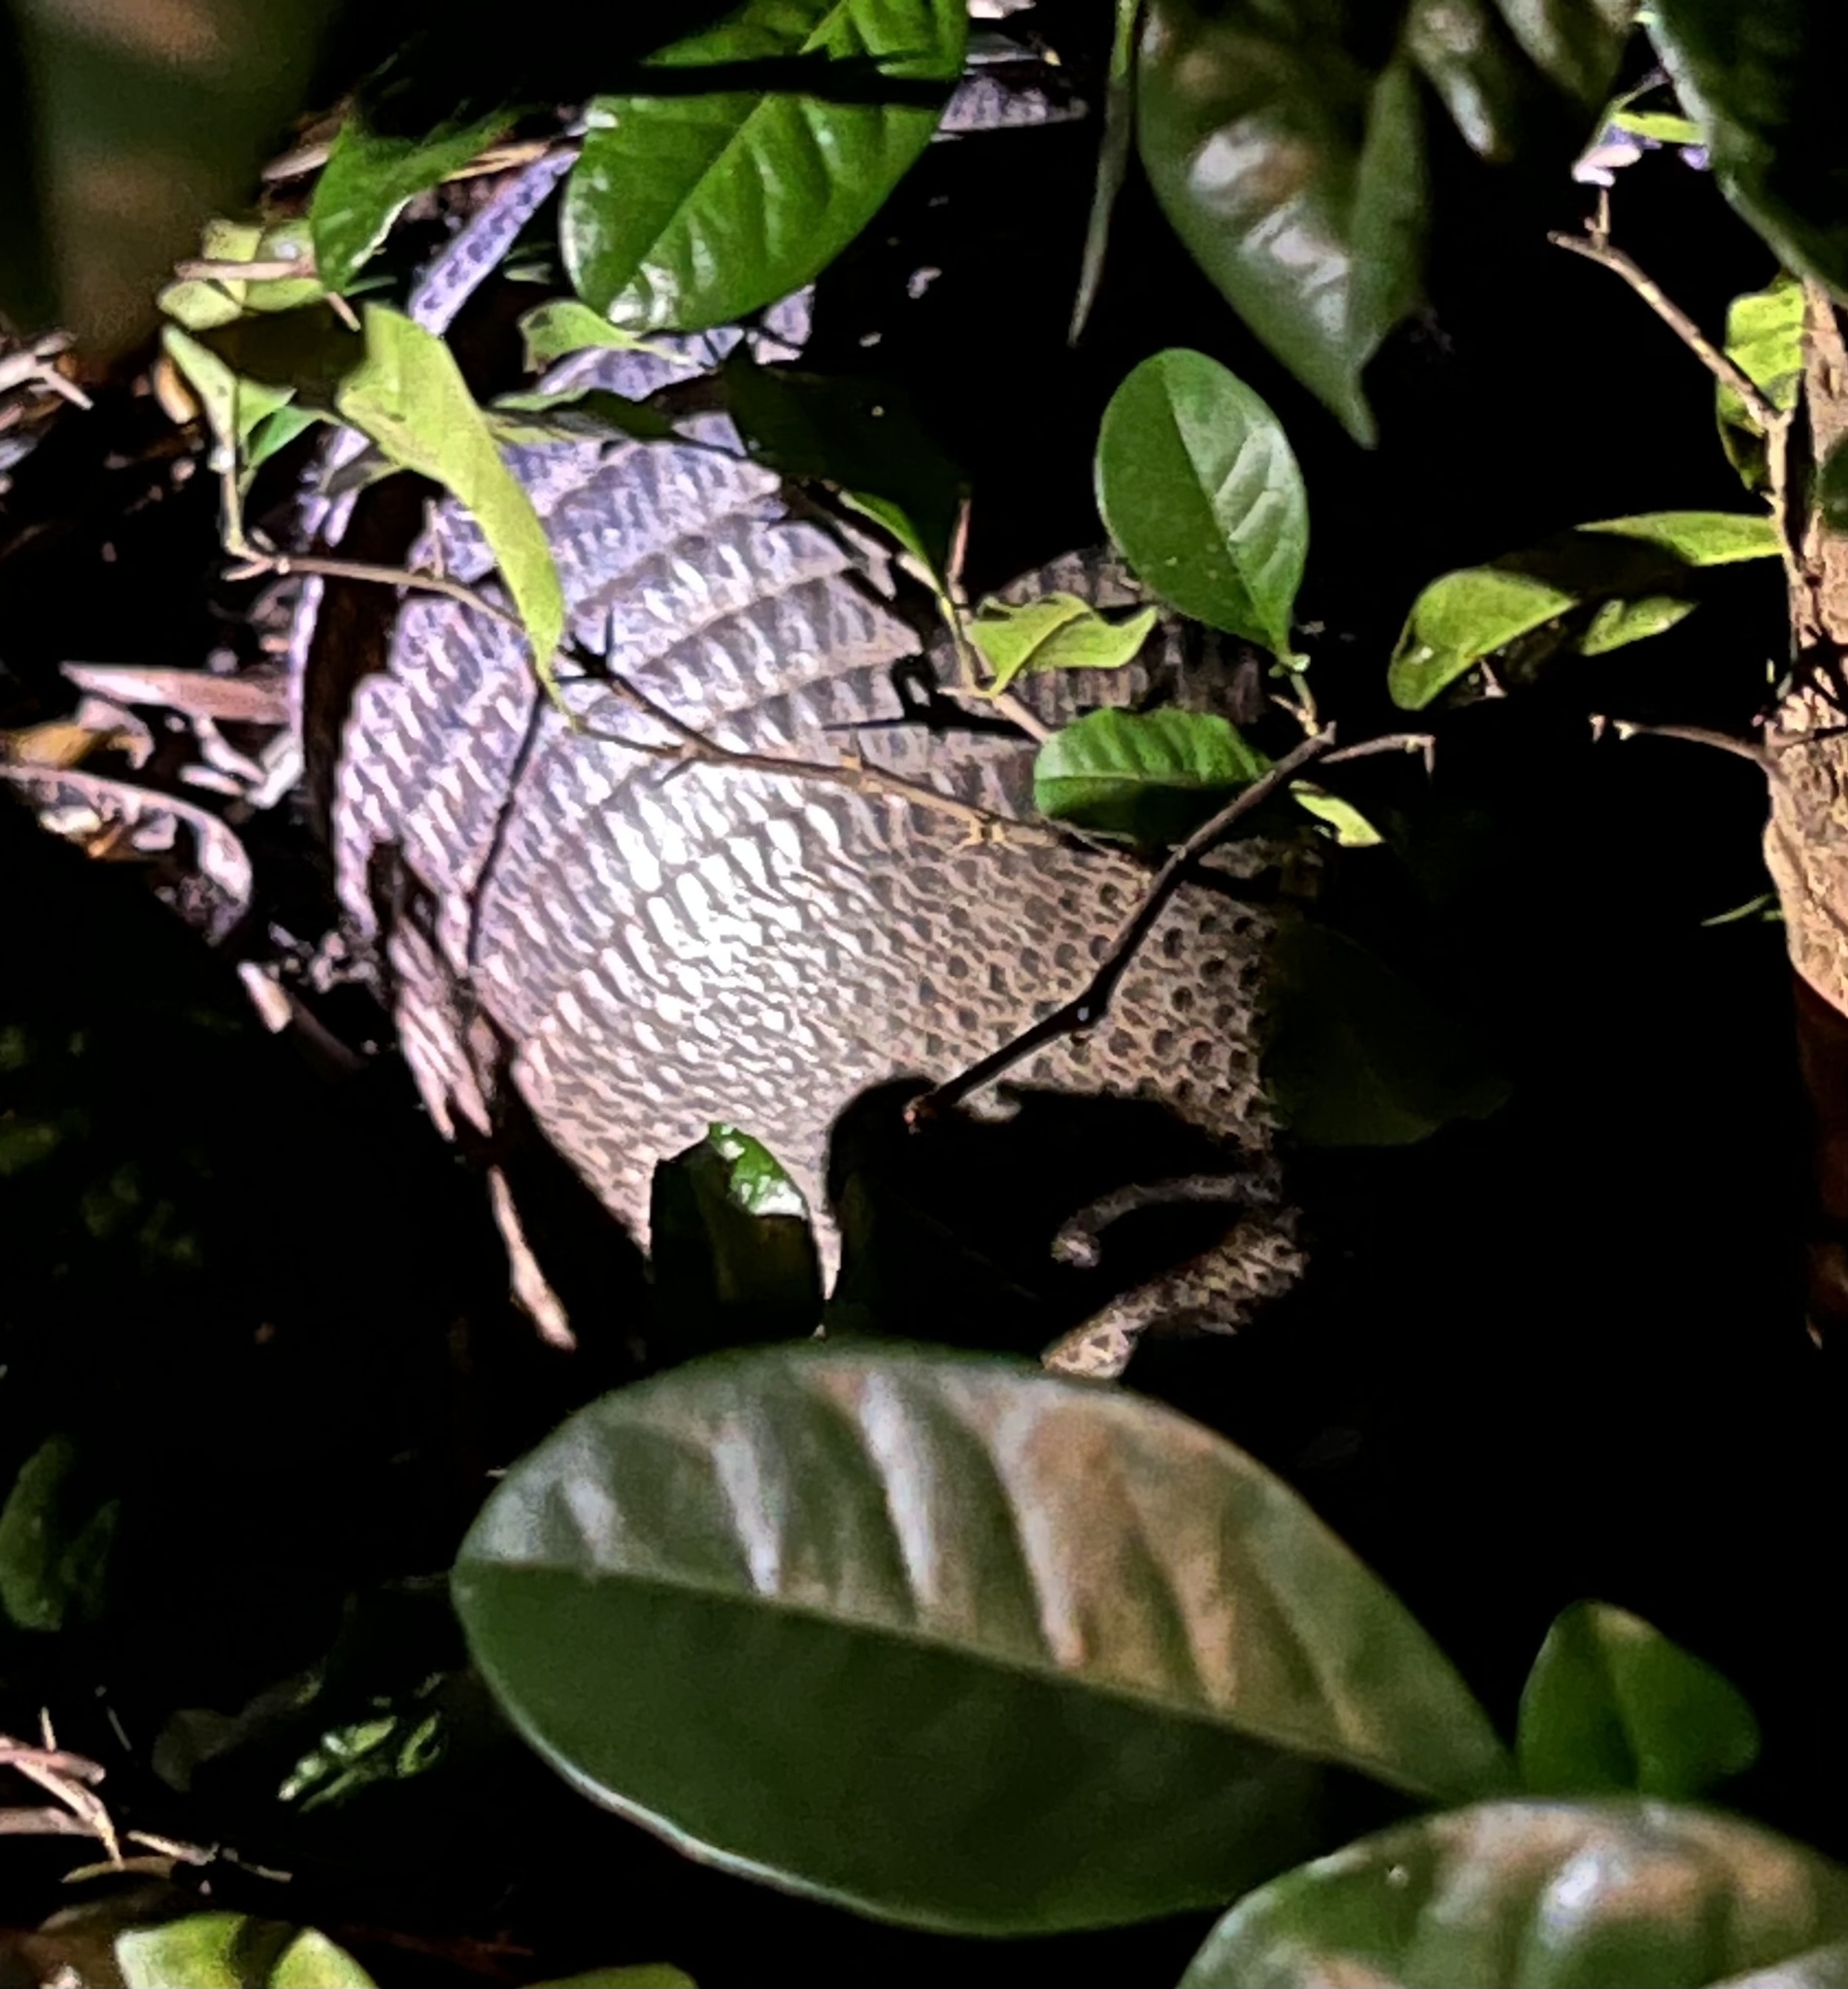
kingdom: Animalia
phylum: Chordata
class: Mammalia
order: Cingulata
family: Dasypodidae
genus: Dasypus
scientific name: Dasypus novemcinctus
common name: Nine-banded armadillo
